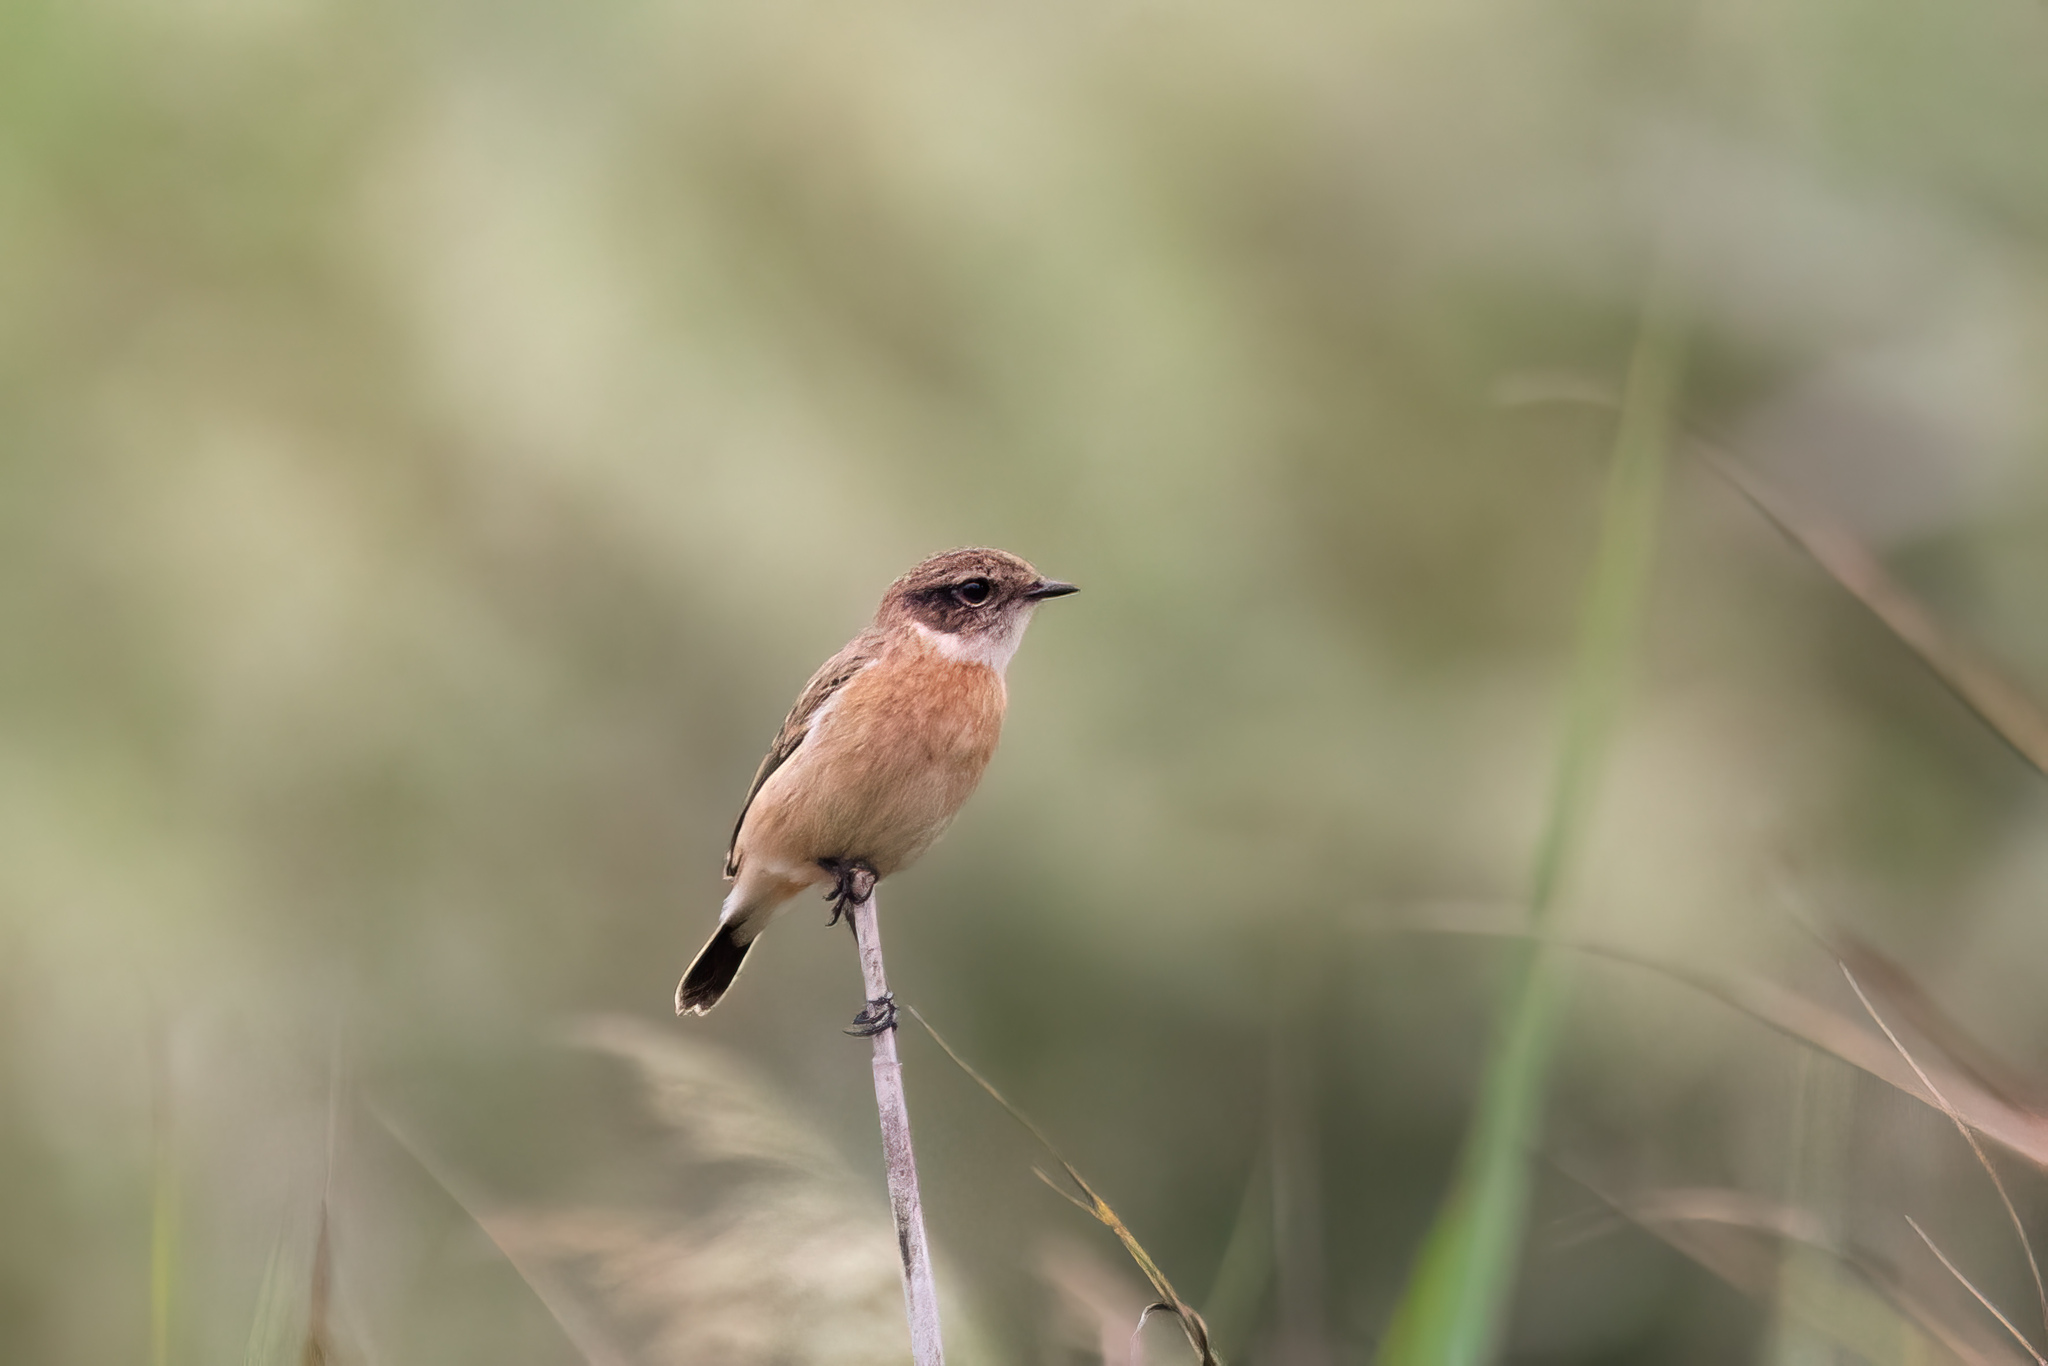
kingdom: Animalia
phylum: Chordata
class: Aves
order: Passeriformes
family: Muscicapidae
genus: Saxicola
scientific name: Saxicola stejnegeri
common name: Stejneger's stonechat
